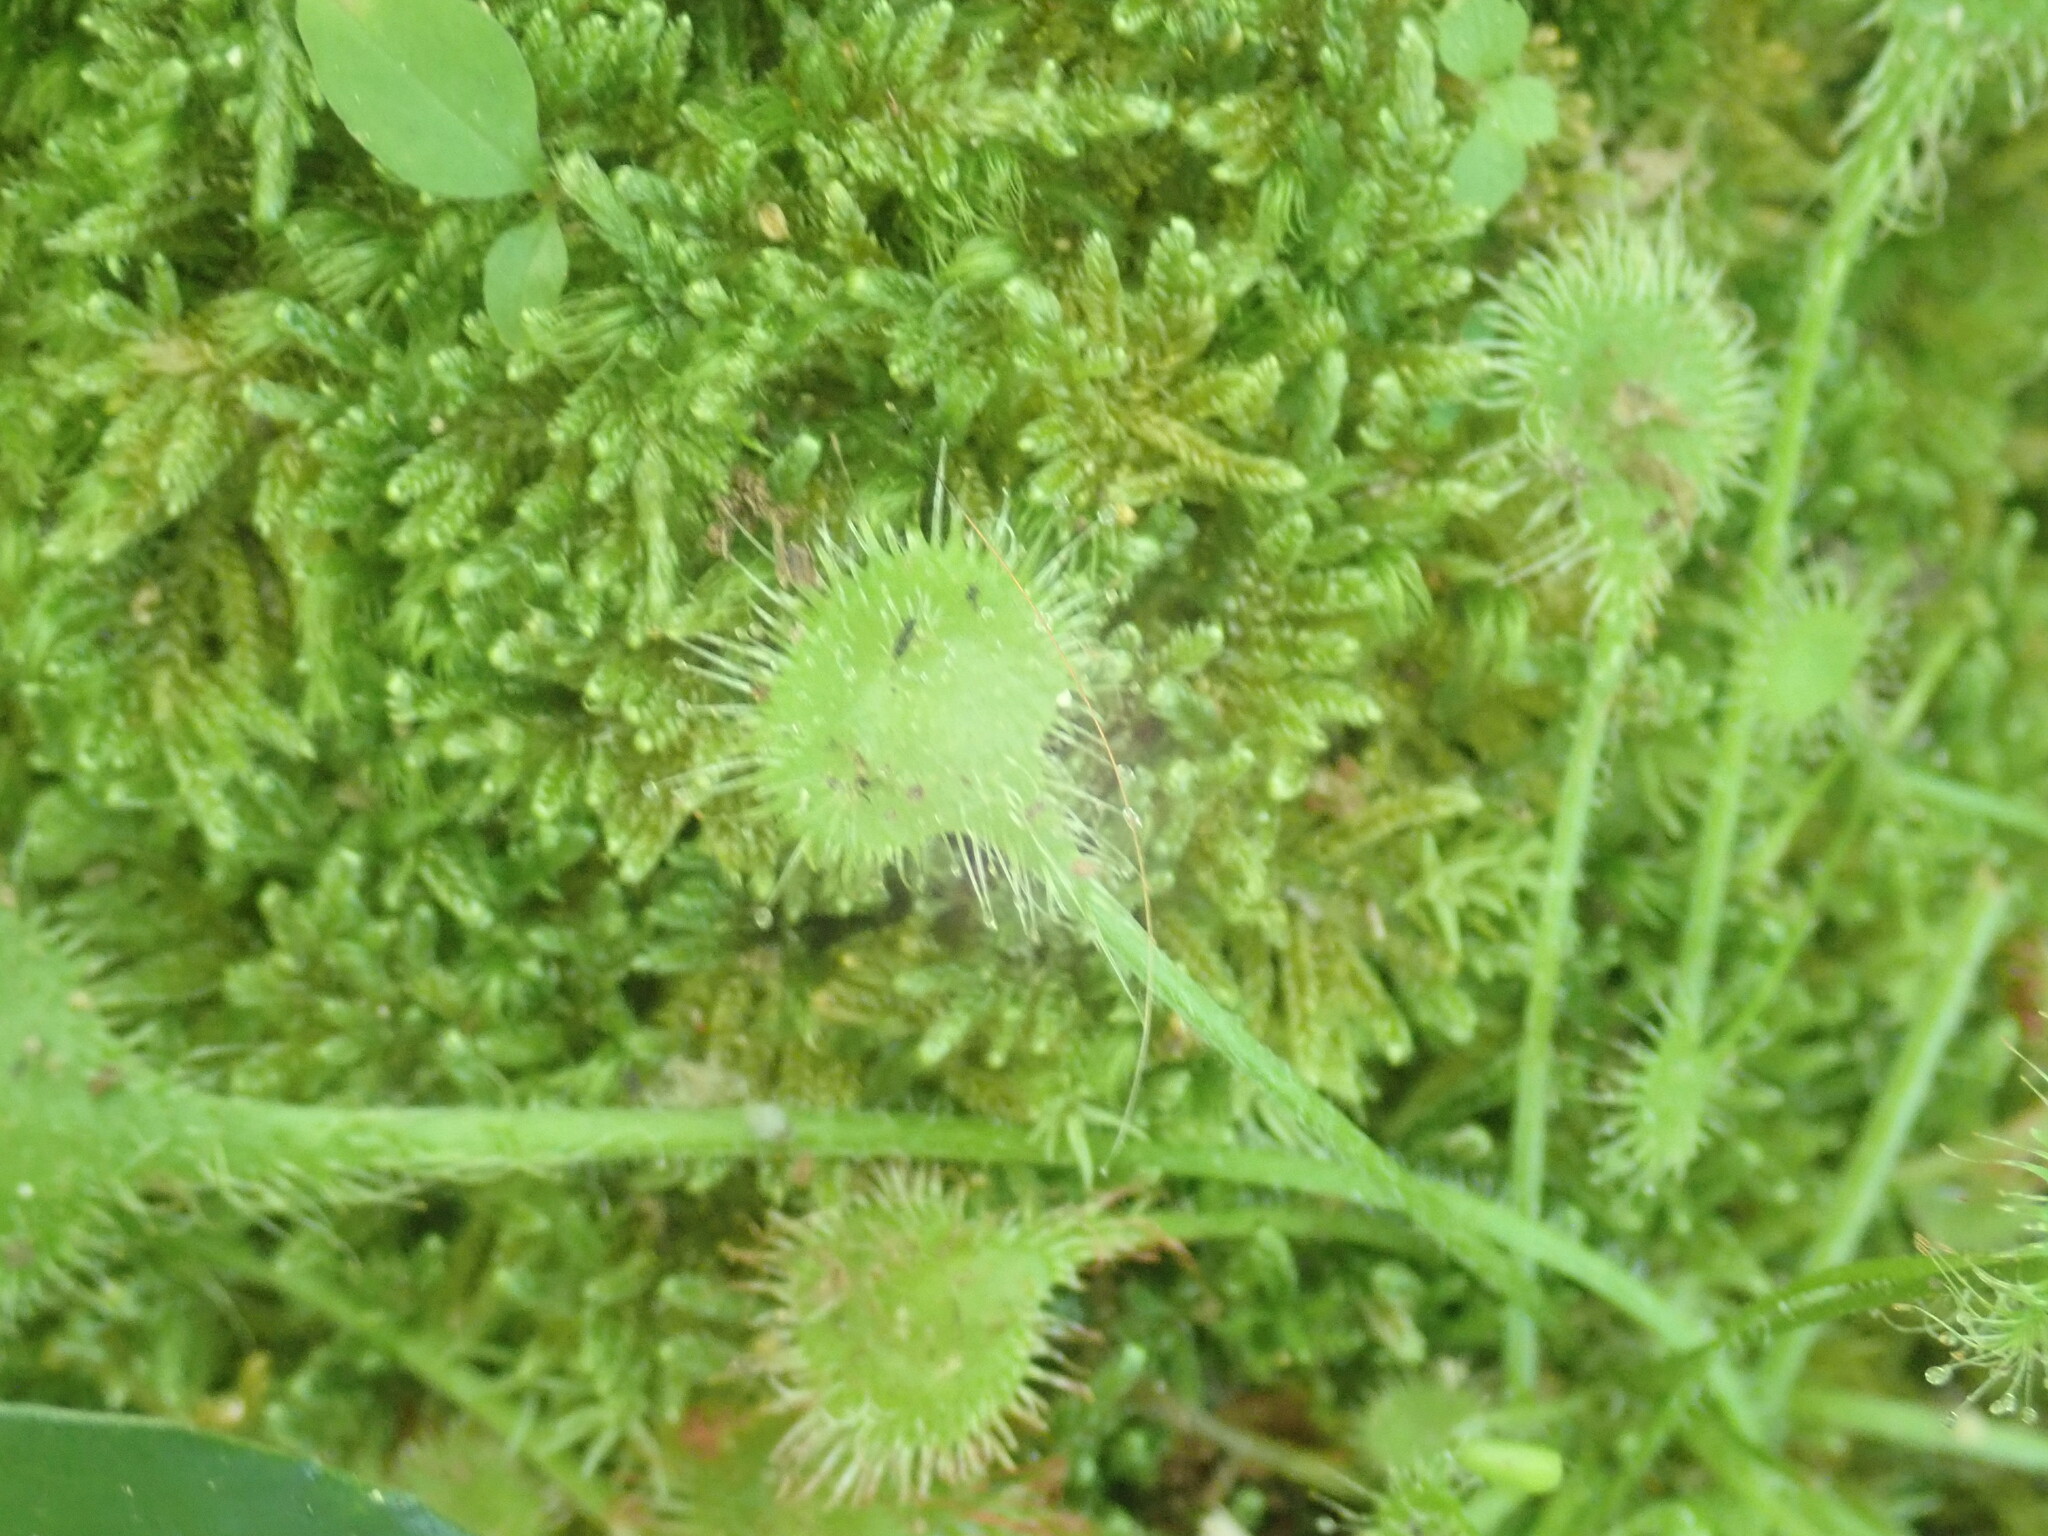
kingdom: Plantae
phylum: Tracheophyta
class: Magnoliopsida
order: Caryophyllales
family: Droseraceae
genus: Drosera
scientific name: Drosera rotundifolia
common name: Round-leaved sundew
